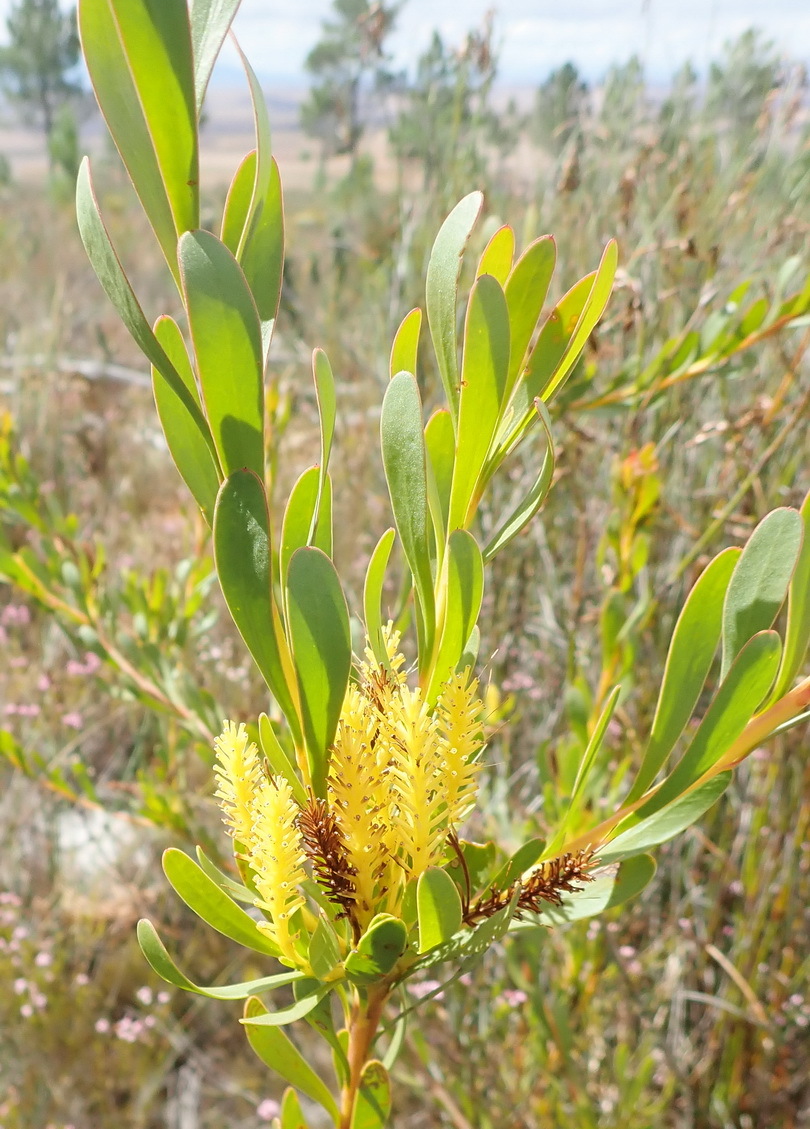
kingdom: Plantae
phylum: Tracheophyta
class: Magnoliopsida
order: Proteales
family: Proteaceae
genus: Aulax
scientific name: Aulax umbellata
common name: Broad-leaf featherbush
